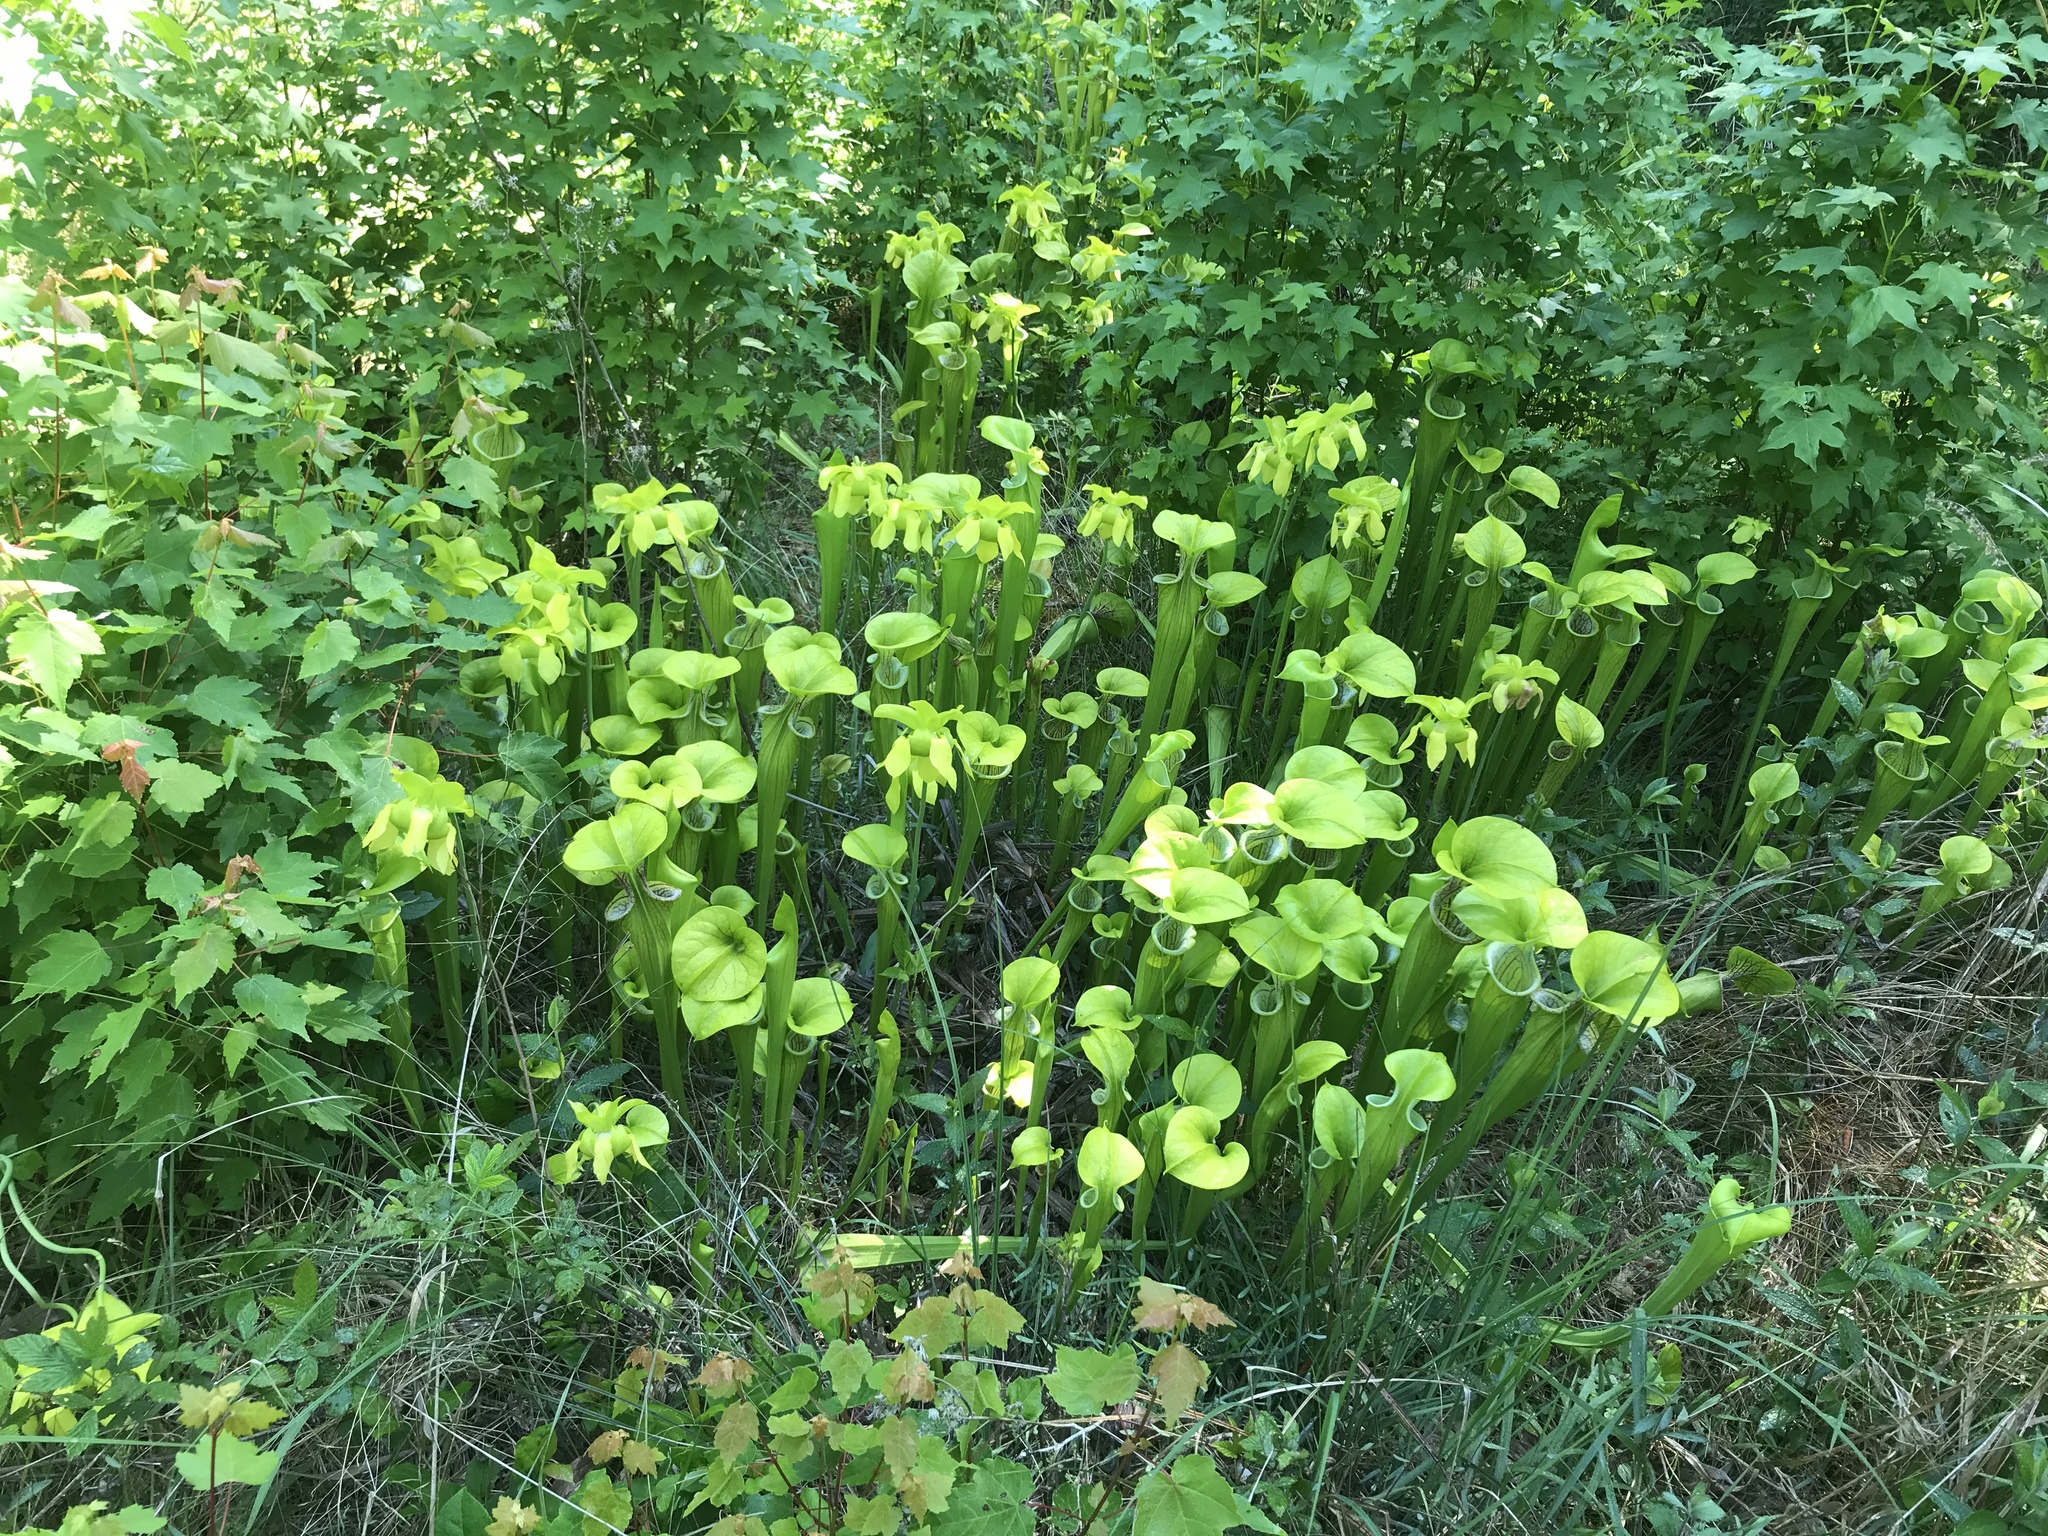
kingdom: Plantae
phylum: Tracheophyta
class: Magnoliopsida
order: Ericales
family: Sarraceniaceae
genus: Sarracenia
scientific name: Sarracenia oreophila
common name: Green pitcherplant
